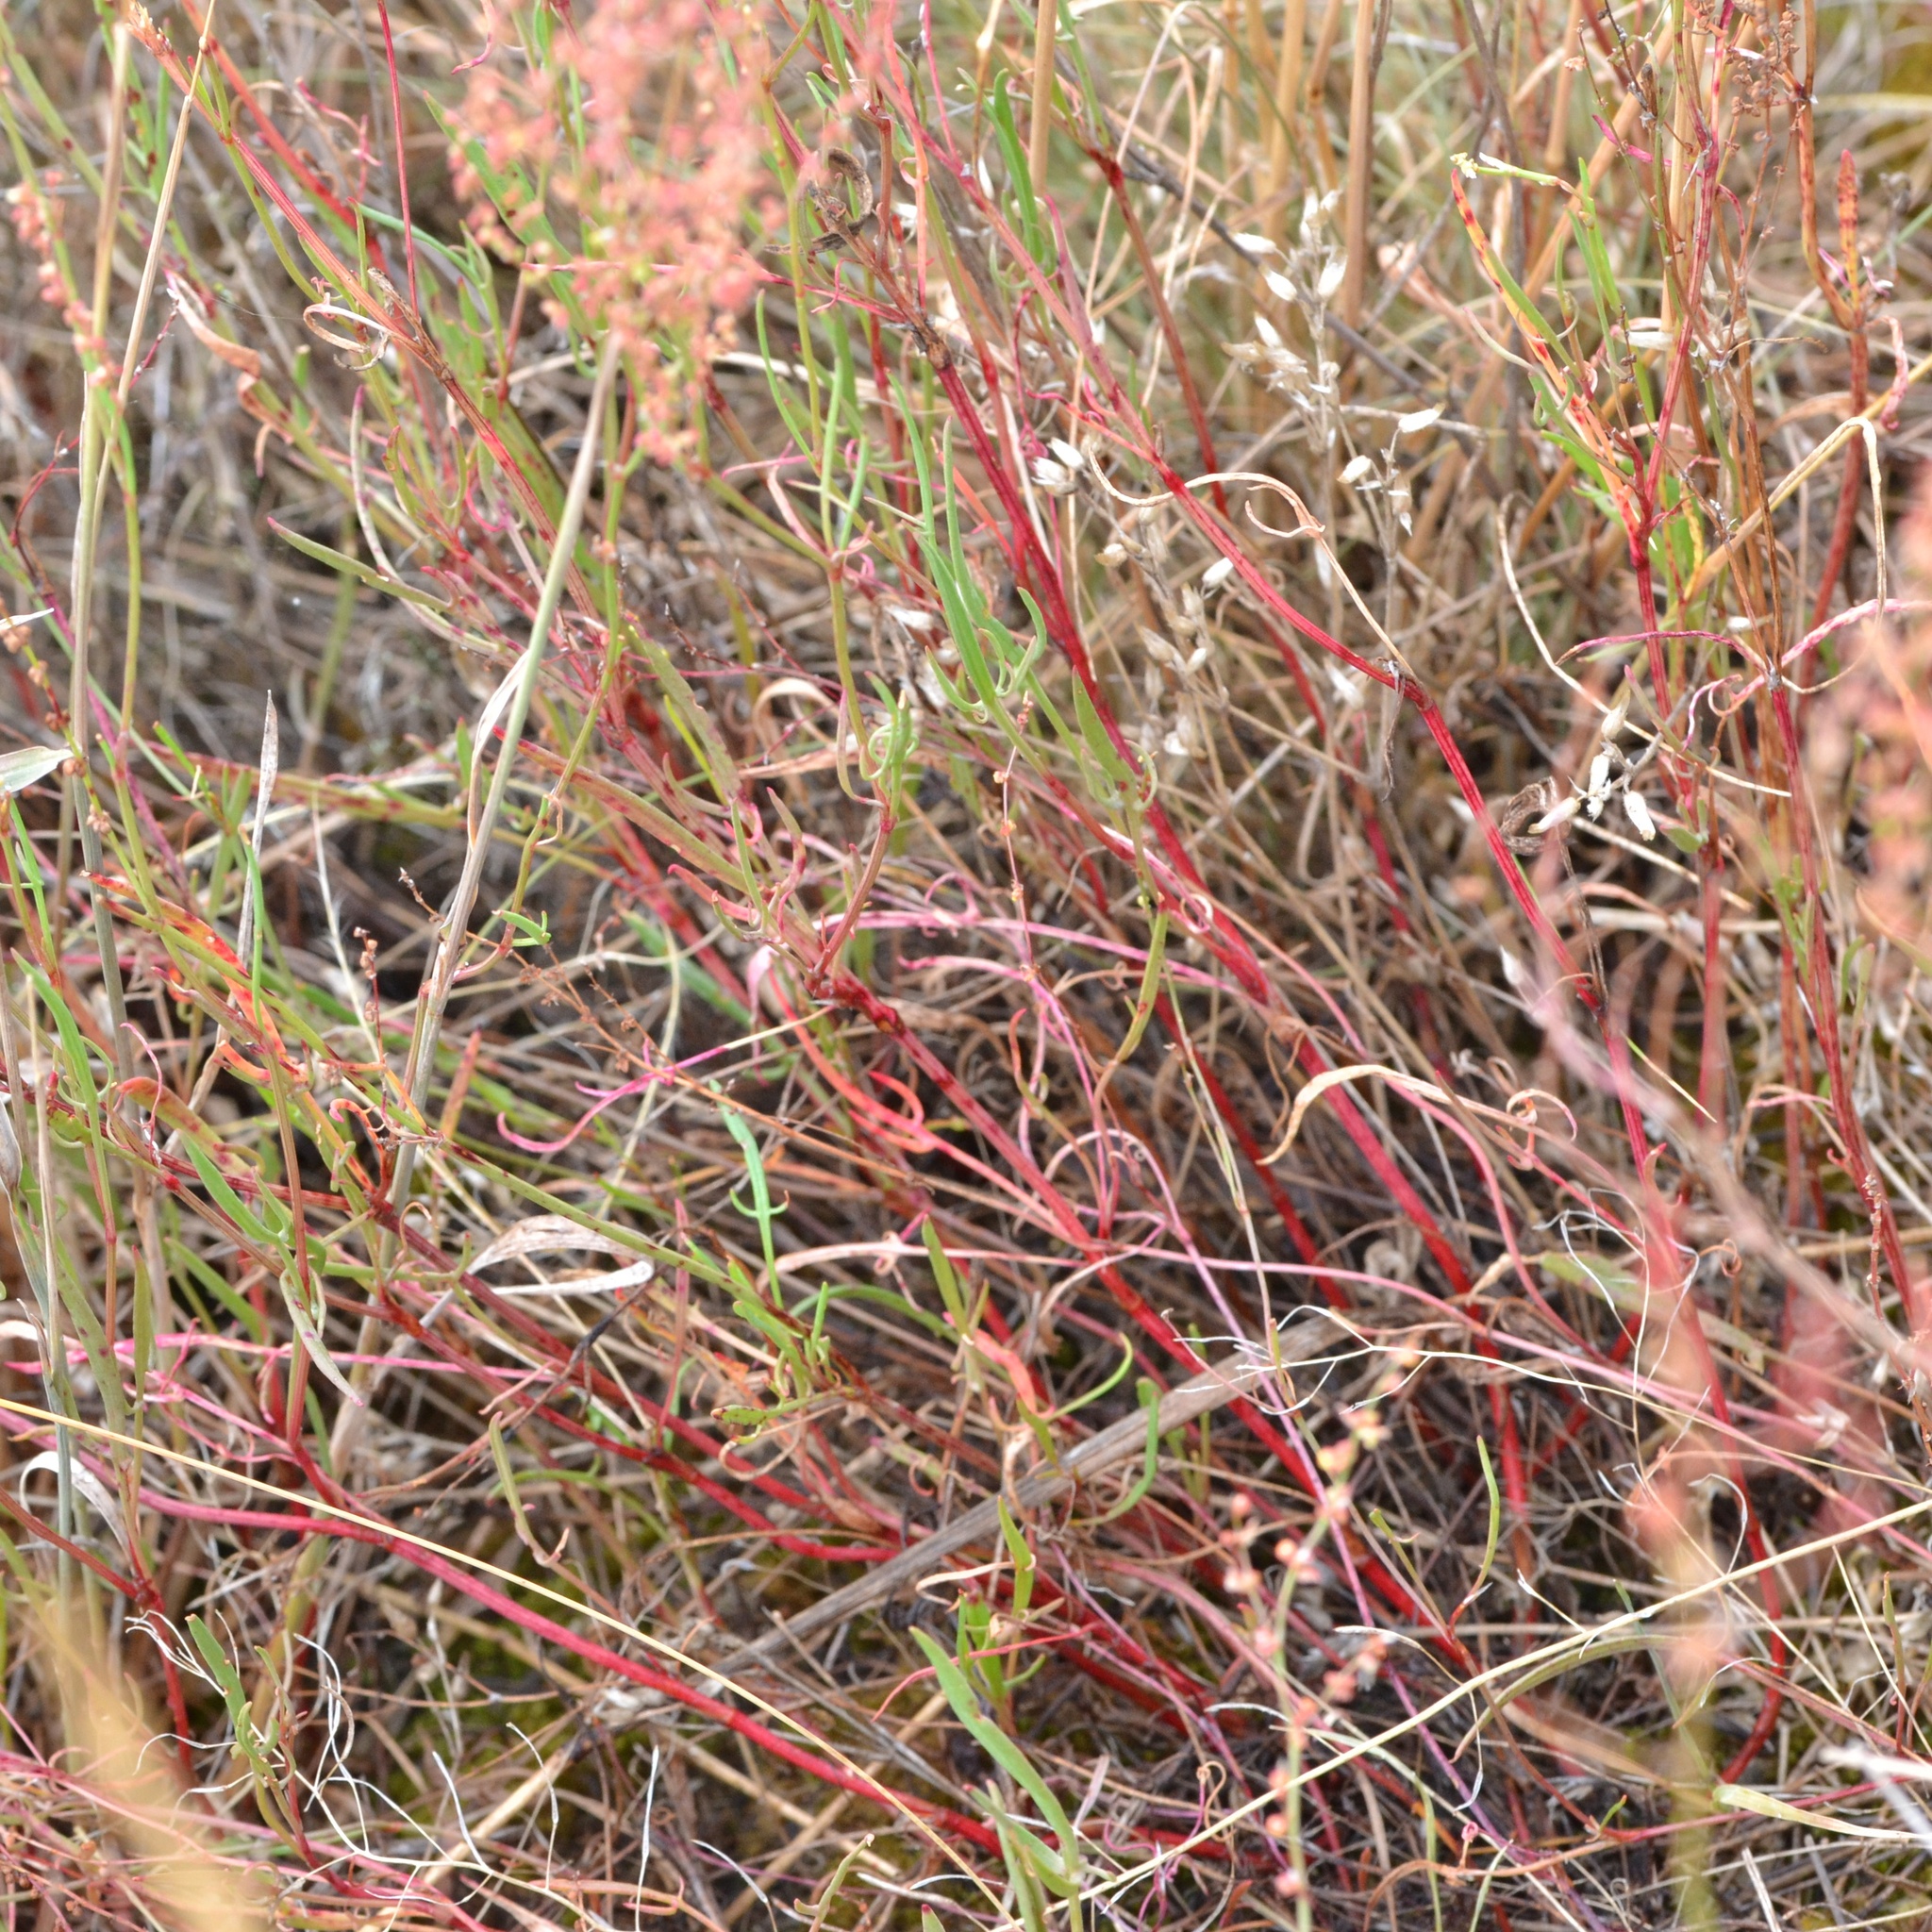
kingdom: Plantae
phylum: Tracheophyta
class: Magnoliopsida
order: Caryophyllales
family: Polygonaceae
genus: Rumex
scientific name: Rumex acetosella
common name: Common sheep sorrel
